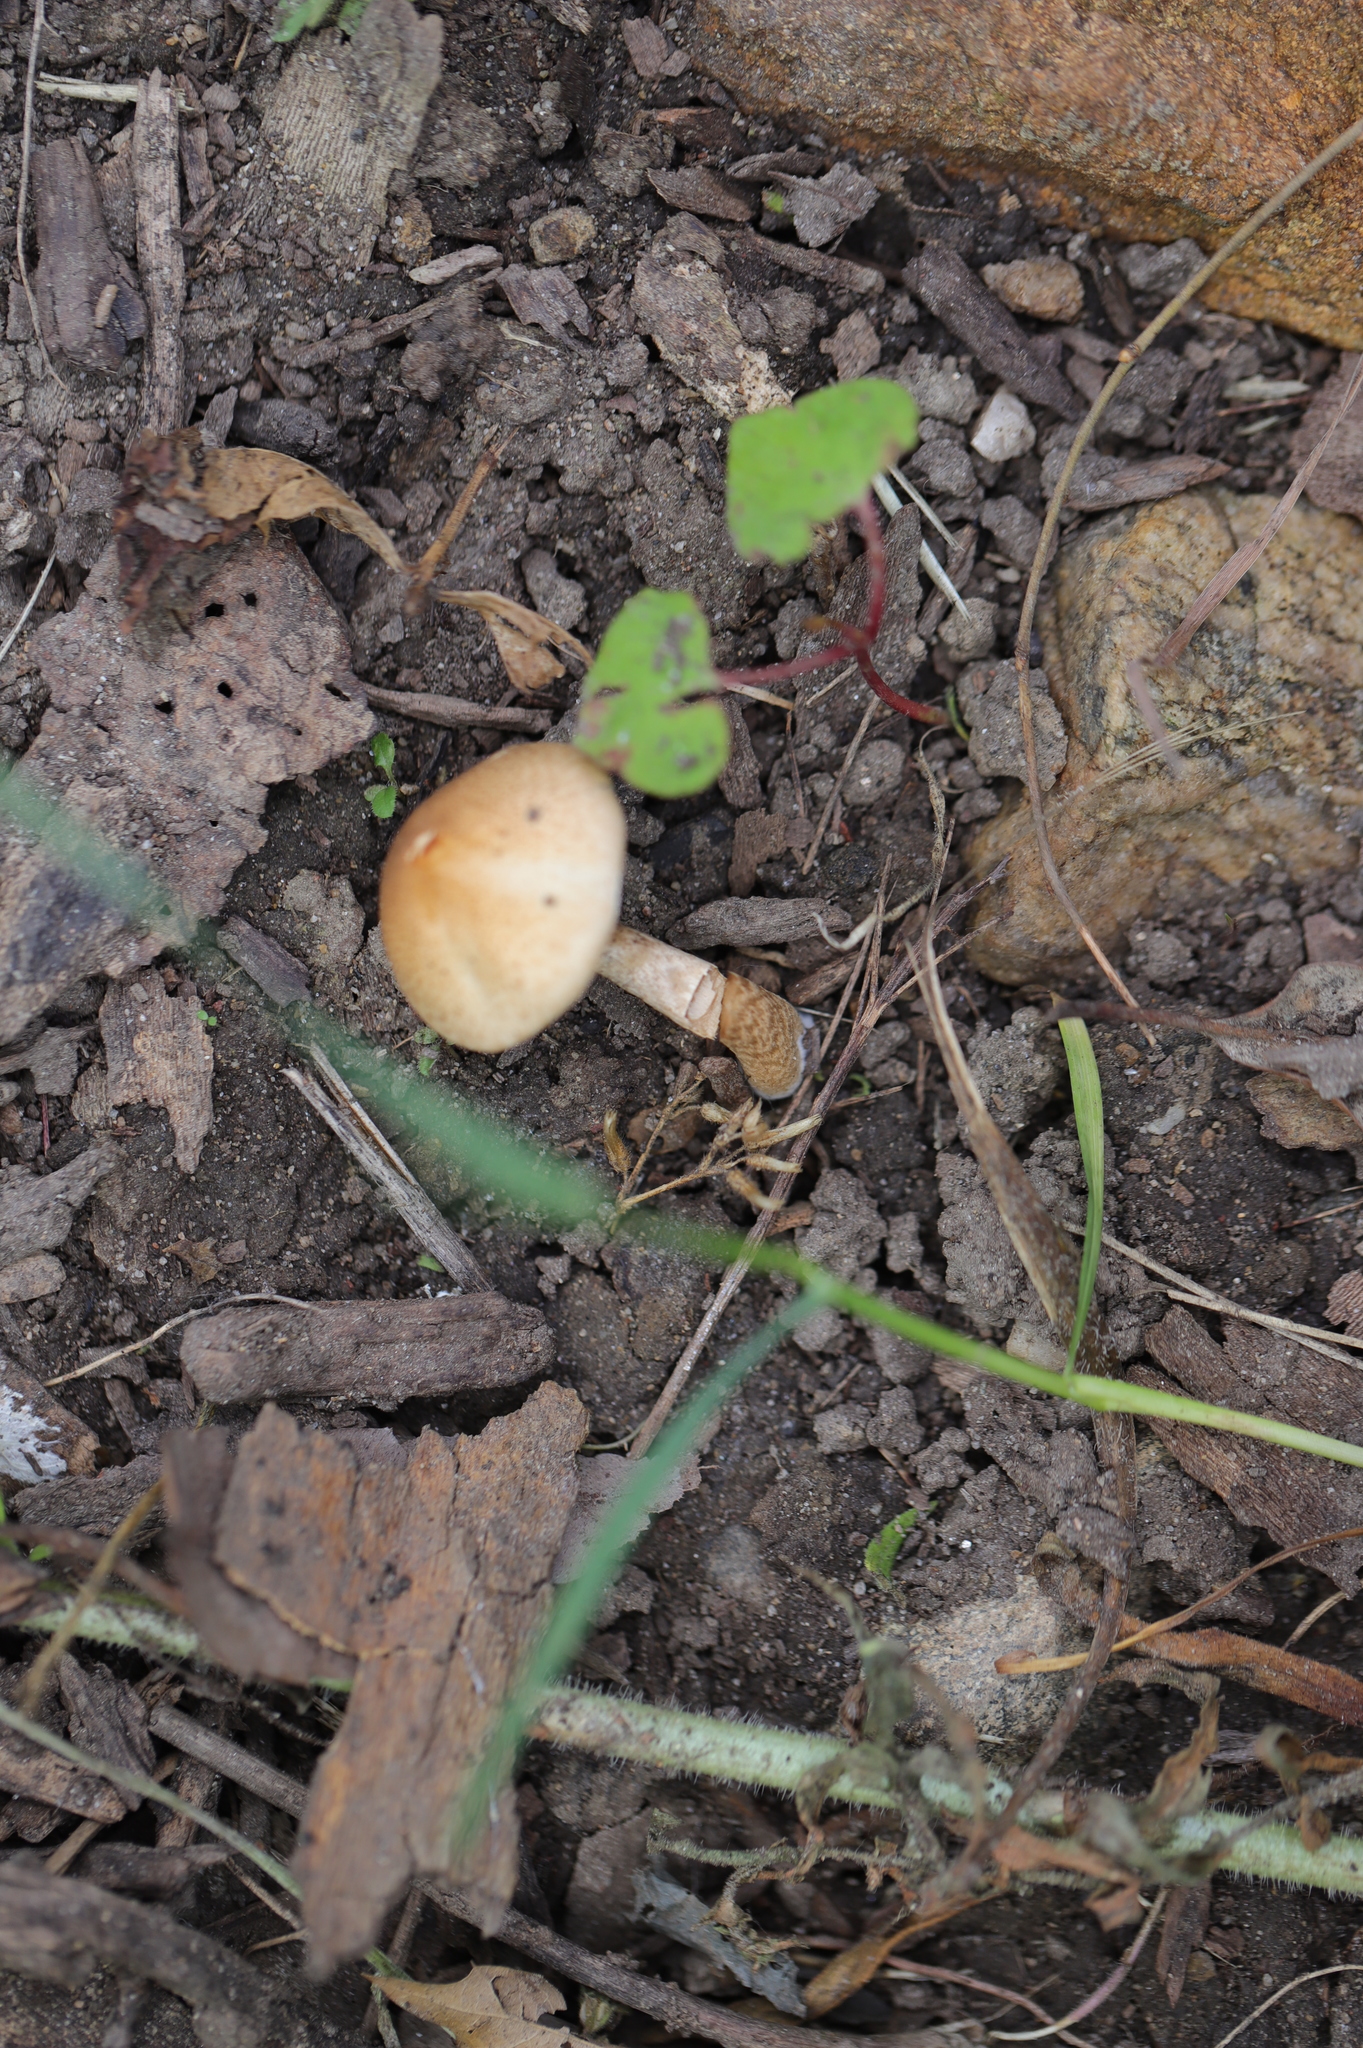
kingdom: Fungi
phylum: Basidiomycota
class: Agaricomycetes
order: Agaricales
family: Psathyrellaceae
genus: Lacrymaria
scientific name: Lacrymaria lacrymabunda
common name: Weeping widow
